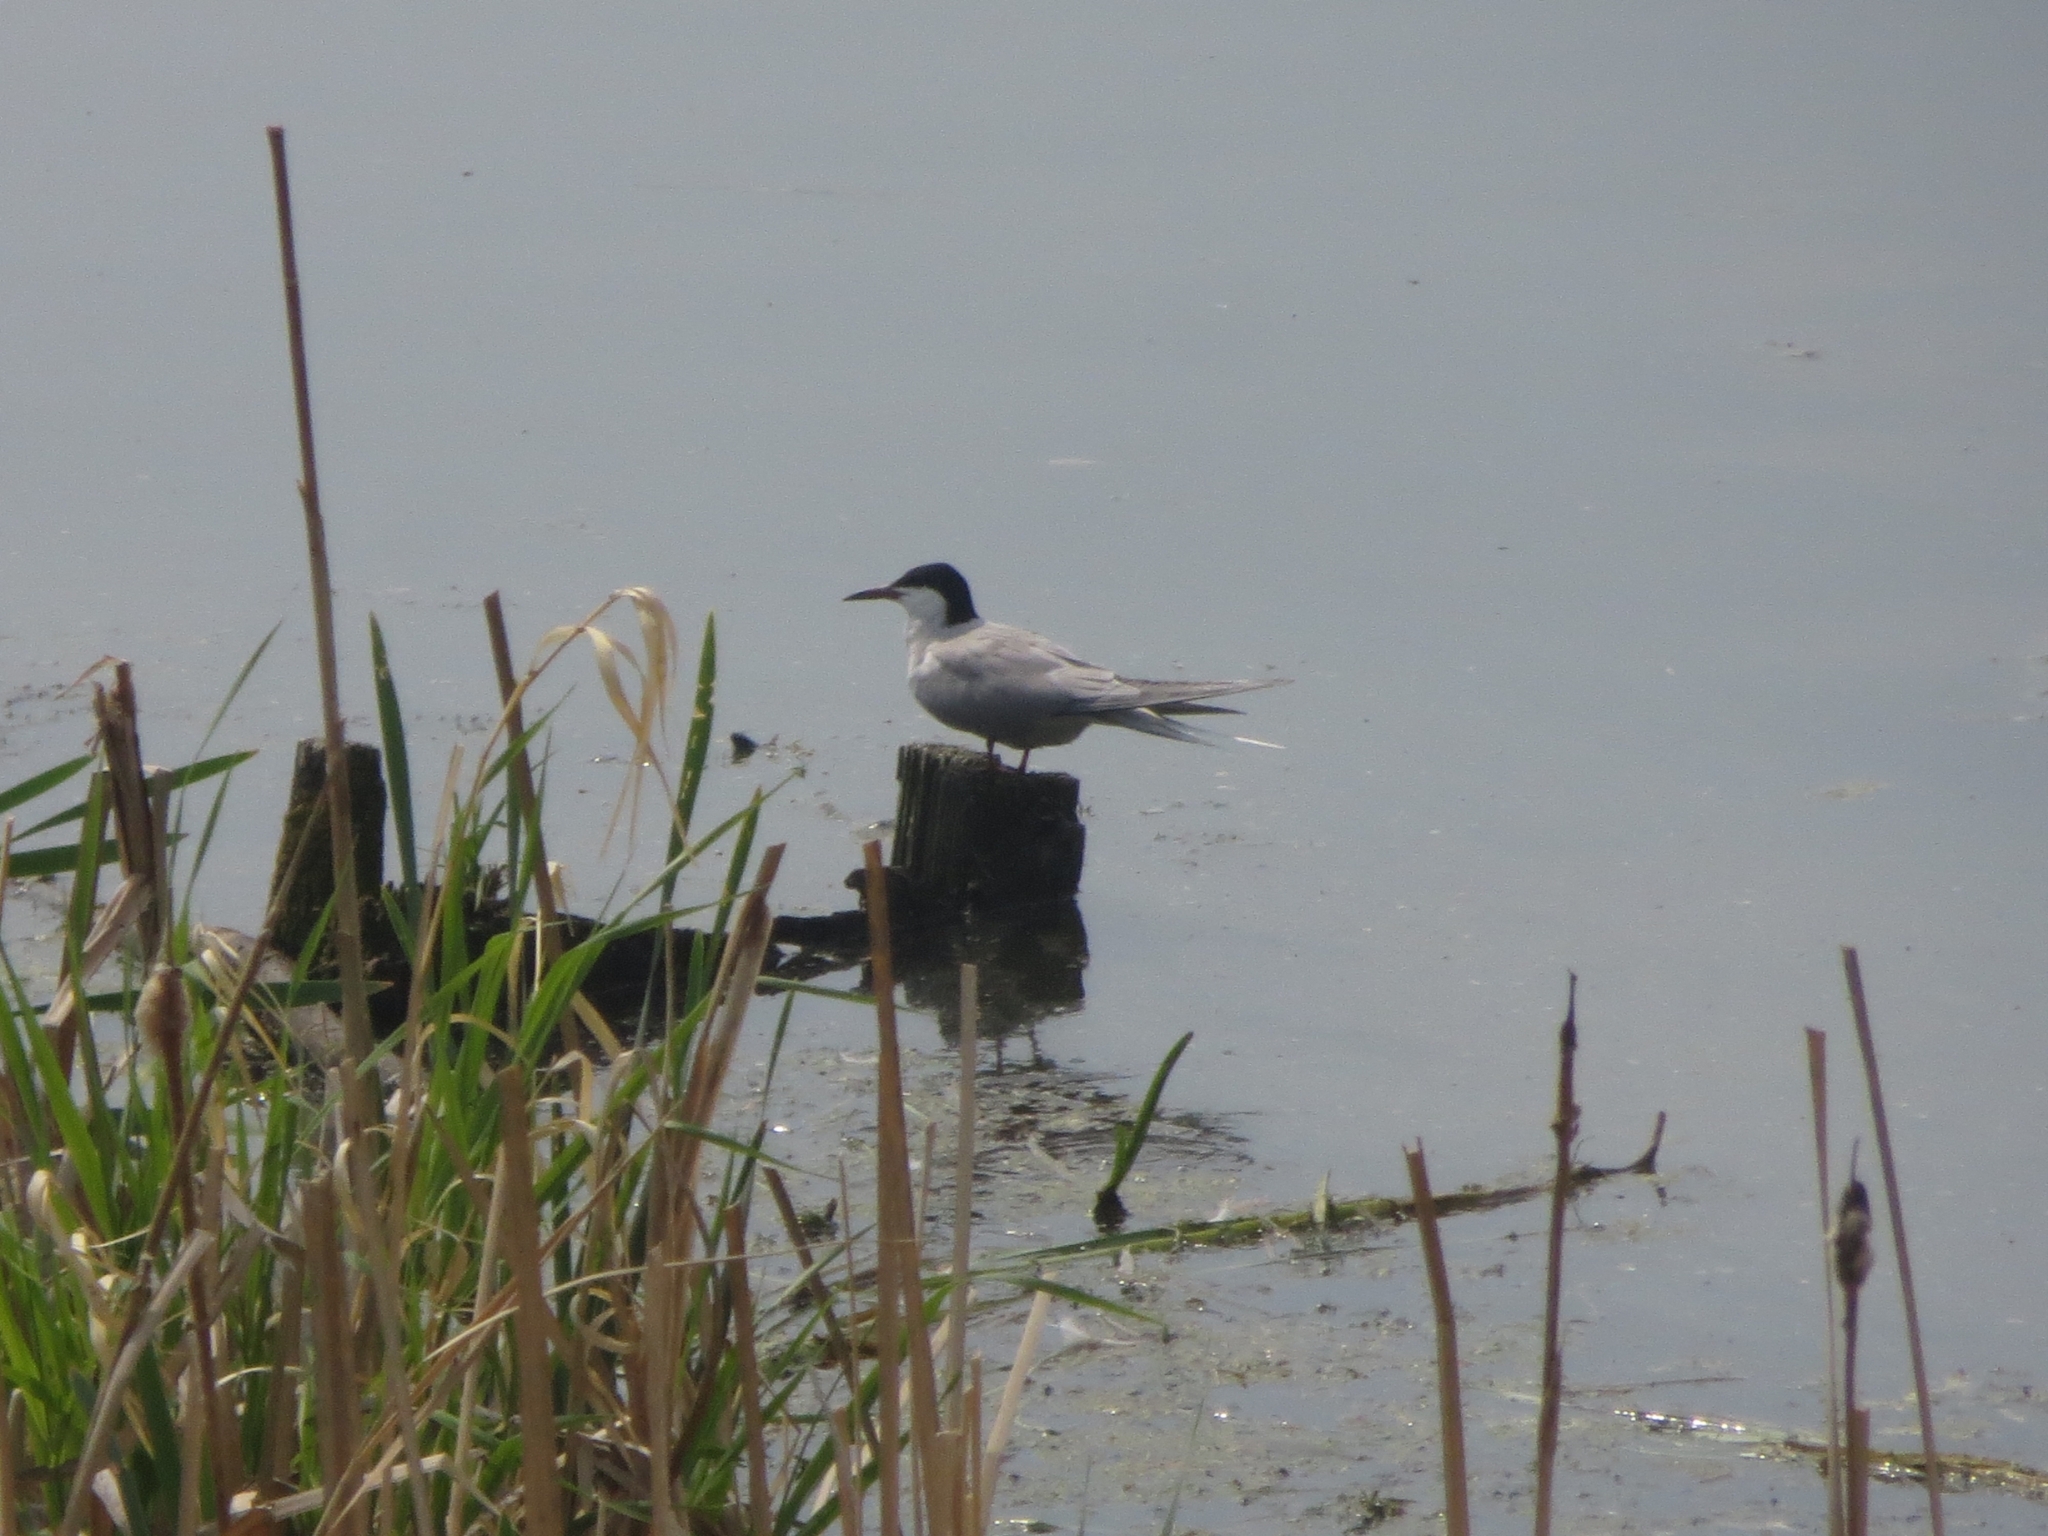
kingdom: Animalia
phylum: Chordata
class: Aves
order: Charadriiformes
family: Laridae
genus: Sterna
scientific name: Sterna hirundo
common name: Common tern
